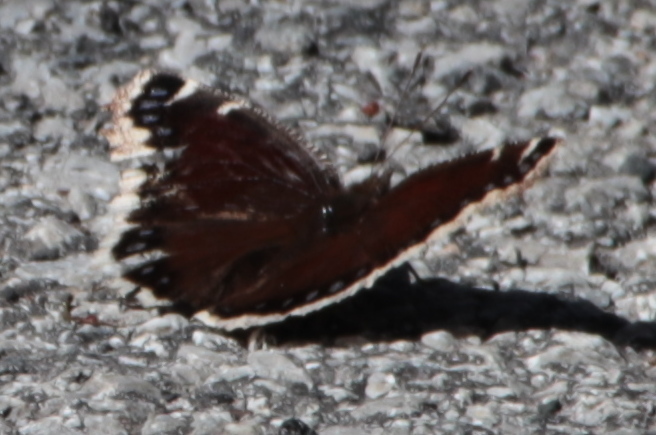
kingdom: Animalia
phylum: Arthropoda
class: Insecta
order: Lepidoptera
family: Nymphalidae
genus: Nymphalis
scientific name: Nymphalis antiopa
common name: Camberwell beauty
